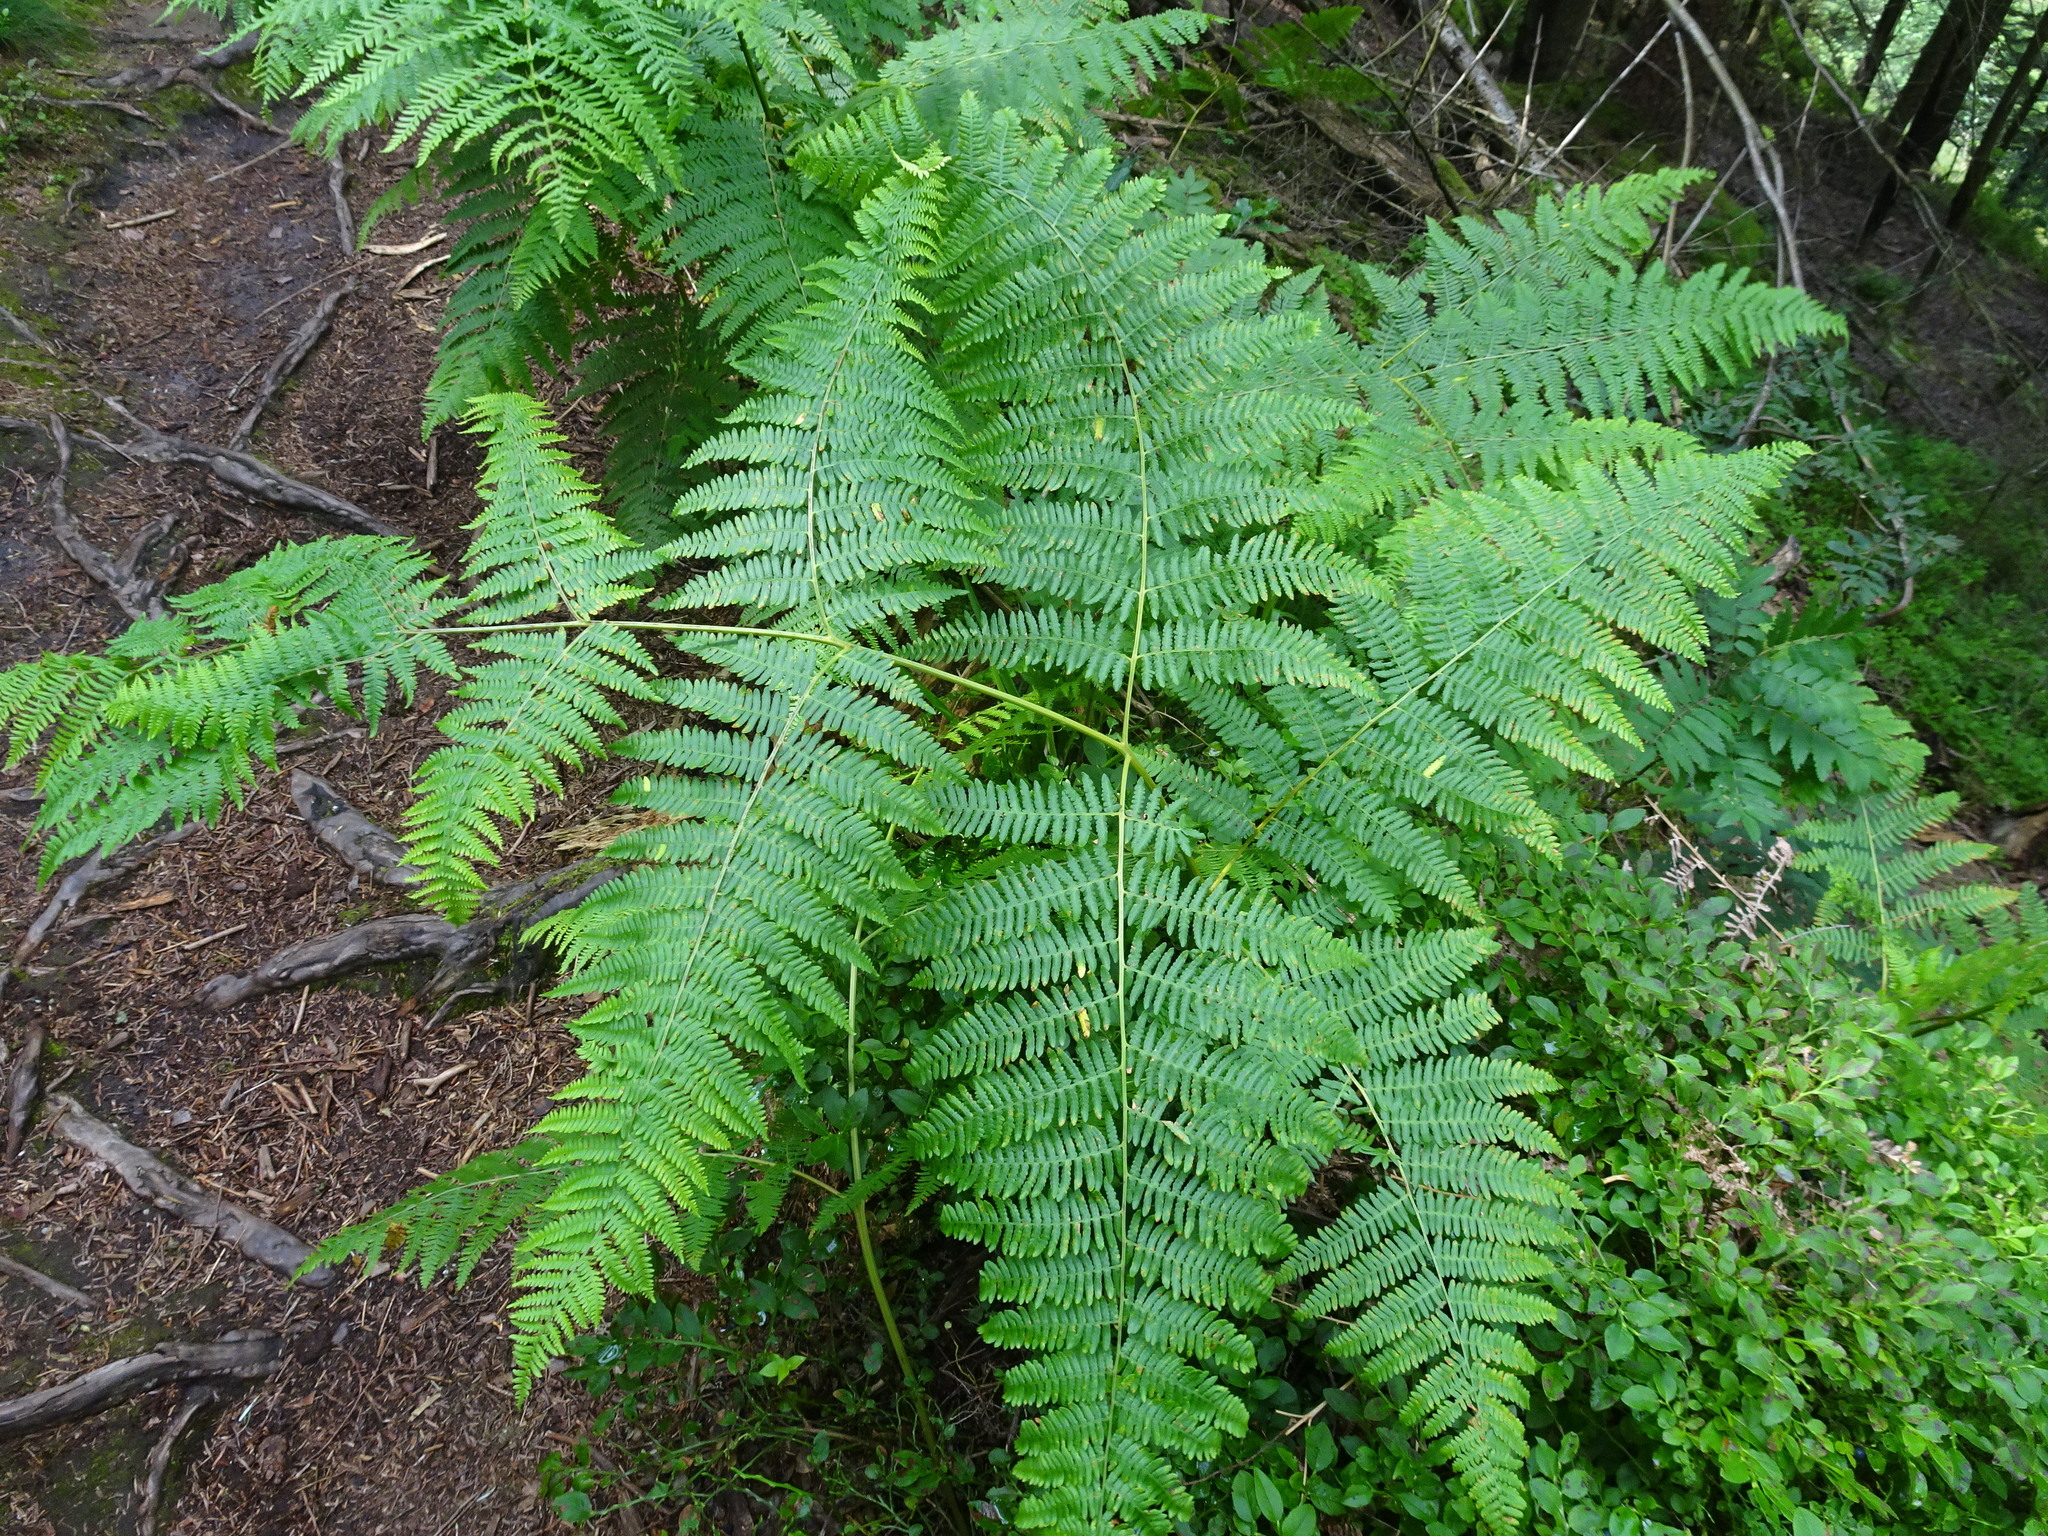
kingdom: Plantae
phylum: Tracheophyta
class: Polypodiopsida
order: Polypodiales
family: Dennstaedtiaceae
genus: Pteridium
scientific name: Pteridium aquilinum
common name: Bracken
